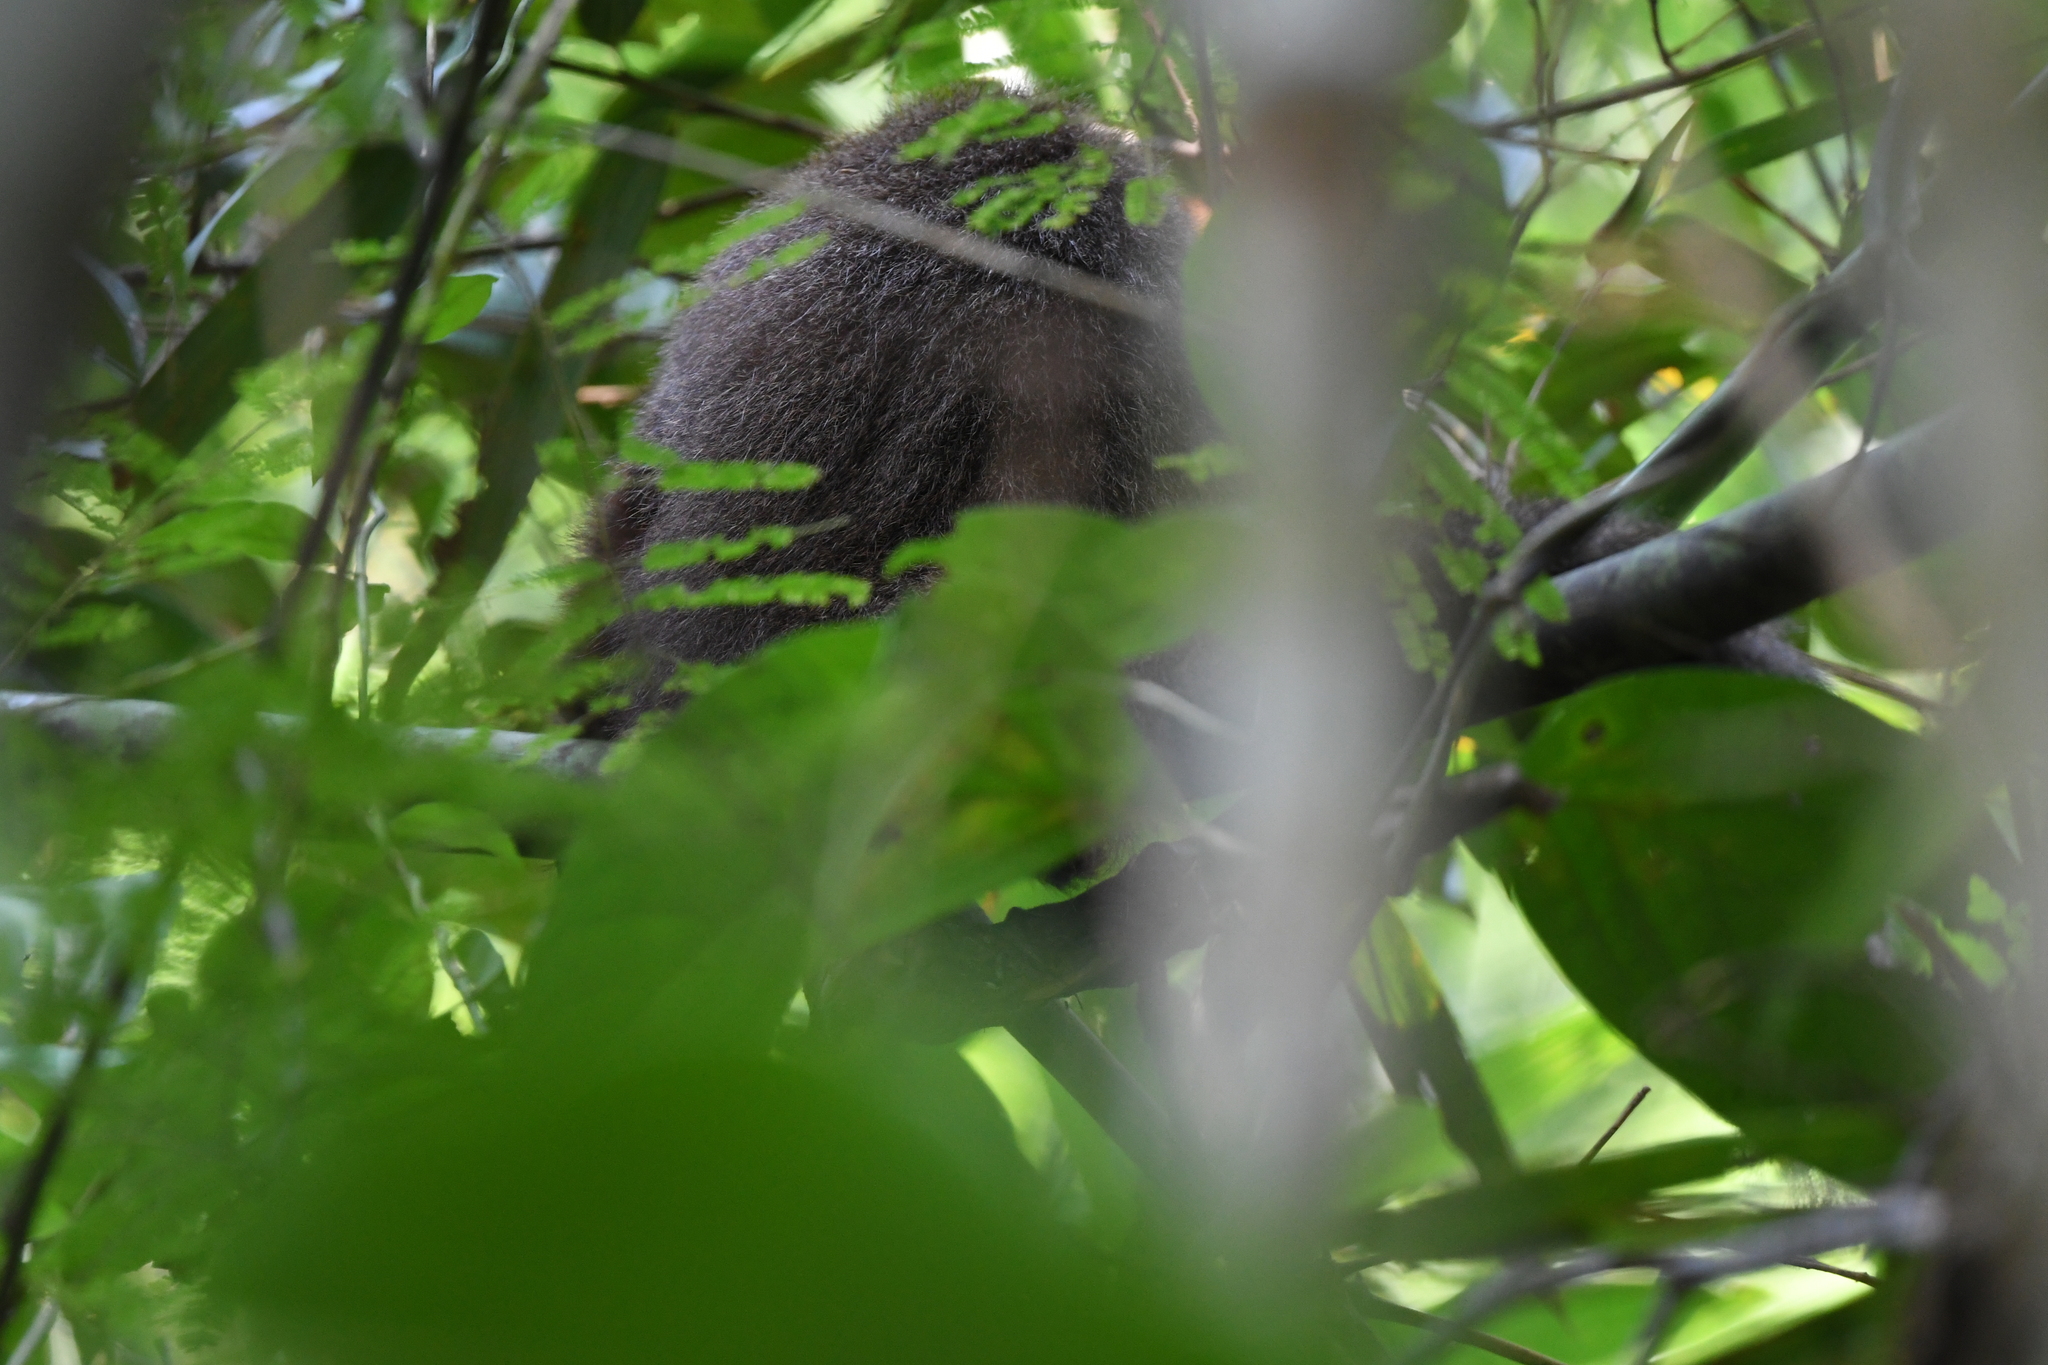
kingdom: Animalia
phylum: Chordata
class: Mammalia
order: Primates
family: Pitheciidae
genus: Plecturocebus
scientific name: Plecturocebus toppini
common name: Toppin's titi
